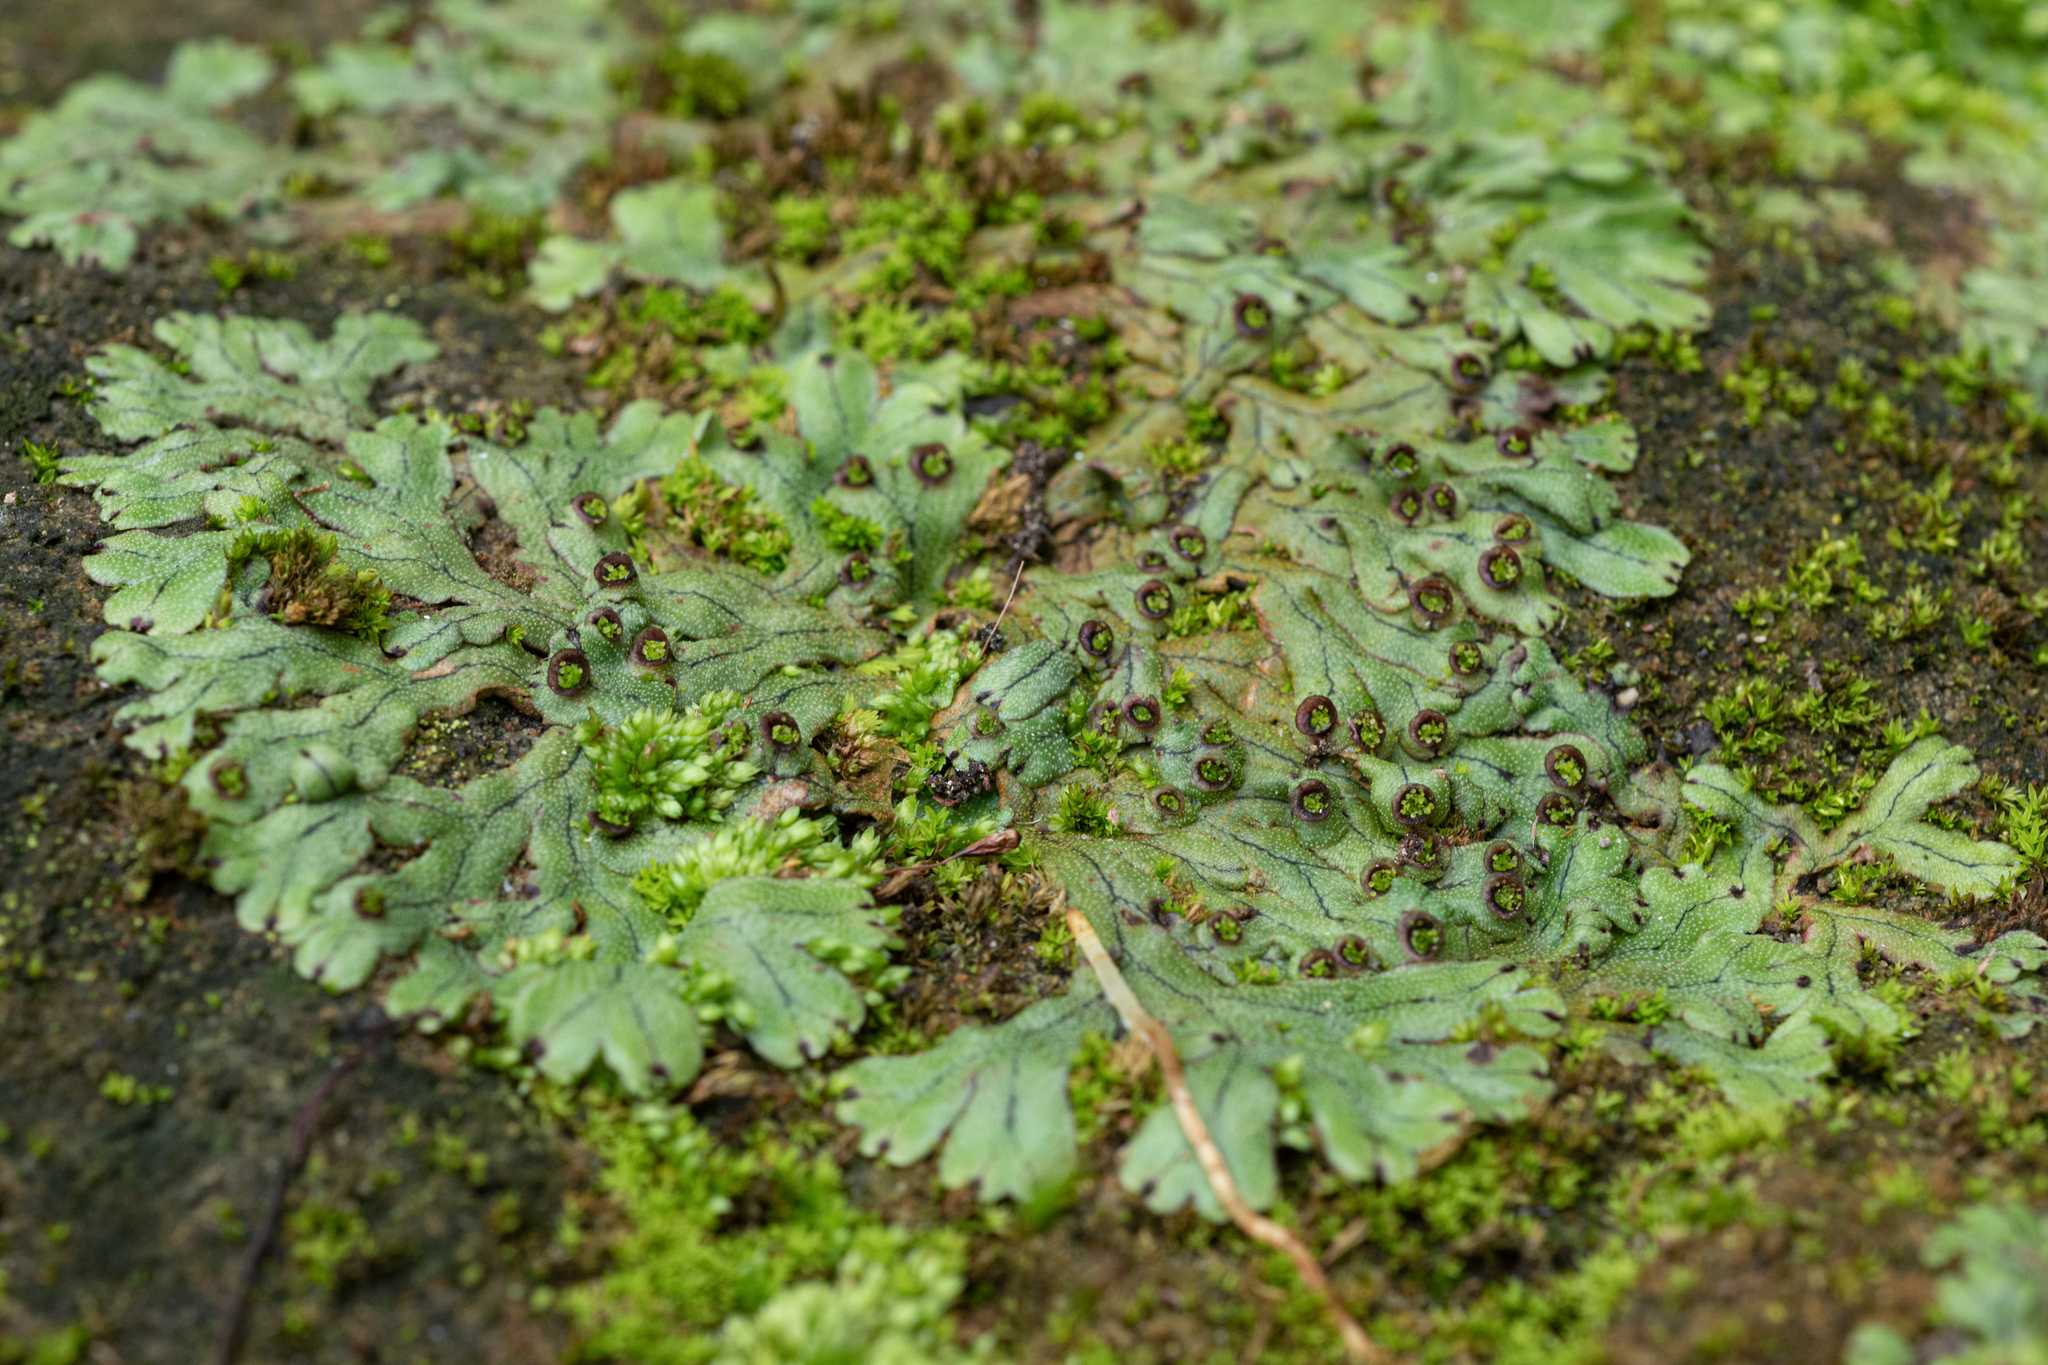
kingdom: Plantae
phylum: Marchantiophyta
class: Marchantiopsida
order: Marchantiales
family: Marchantiaceae
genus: Marchantia
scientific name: Marchantia pinnata
